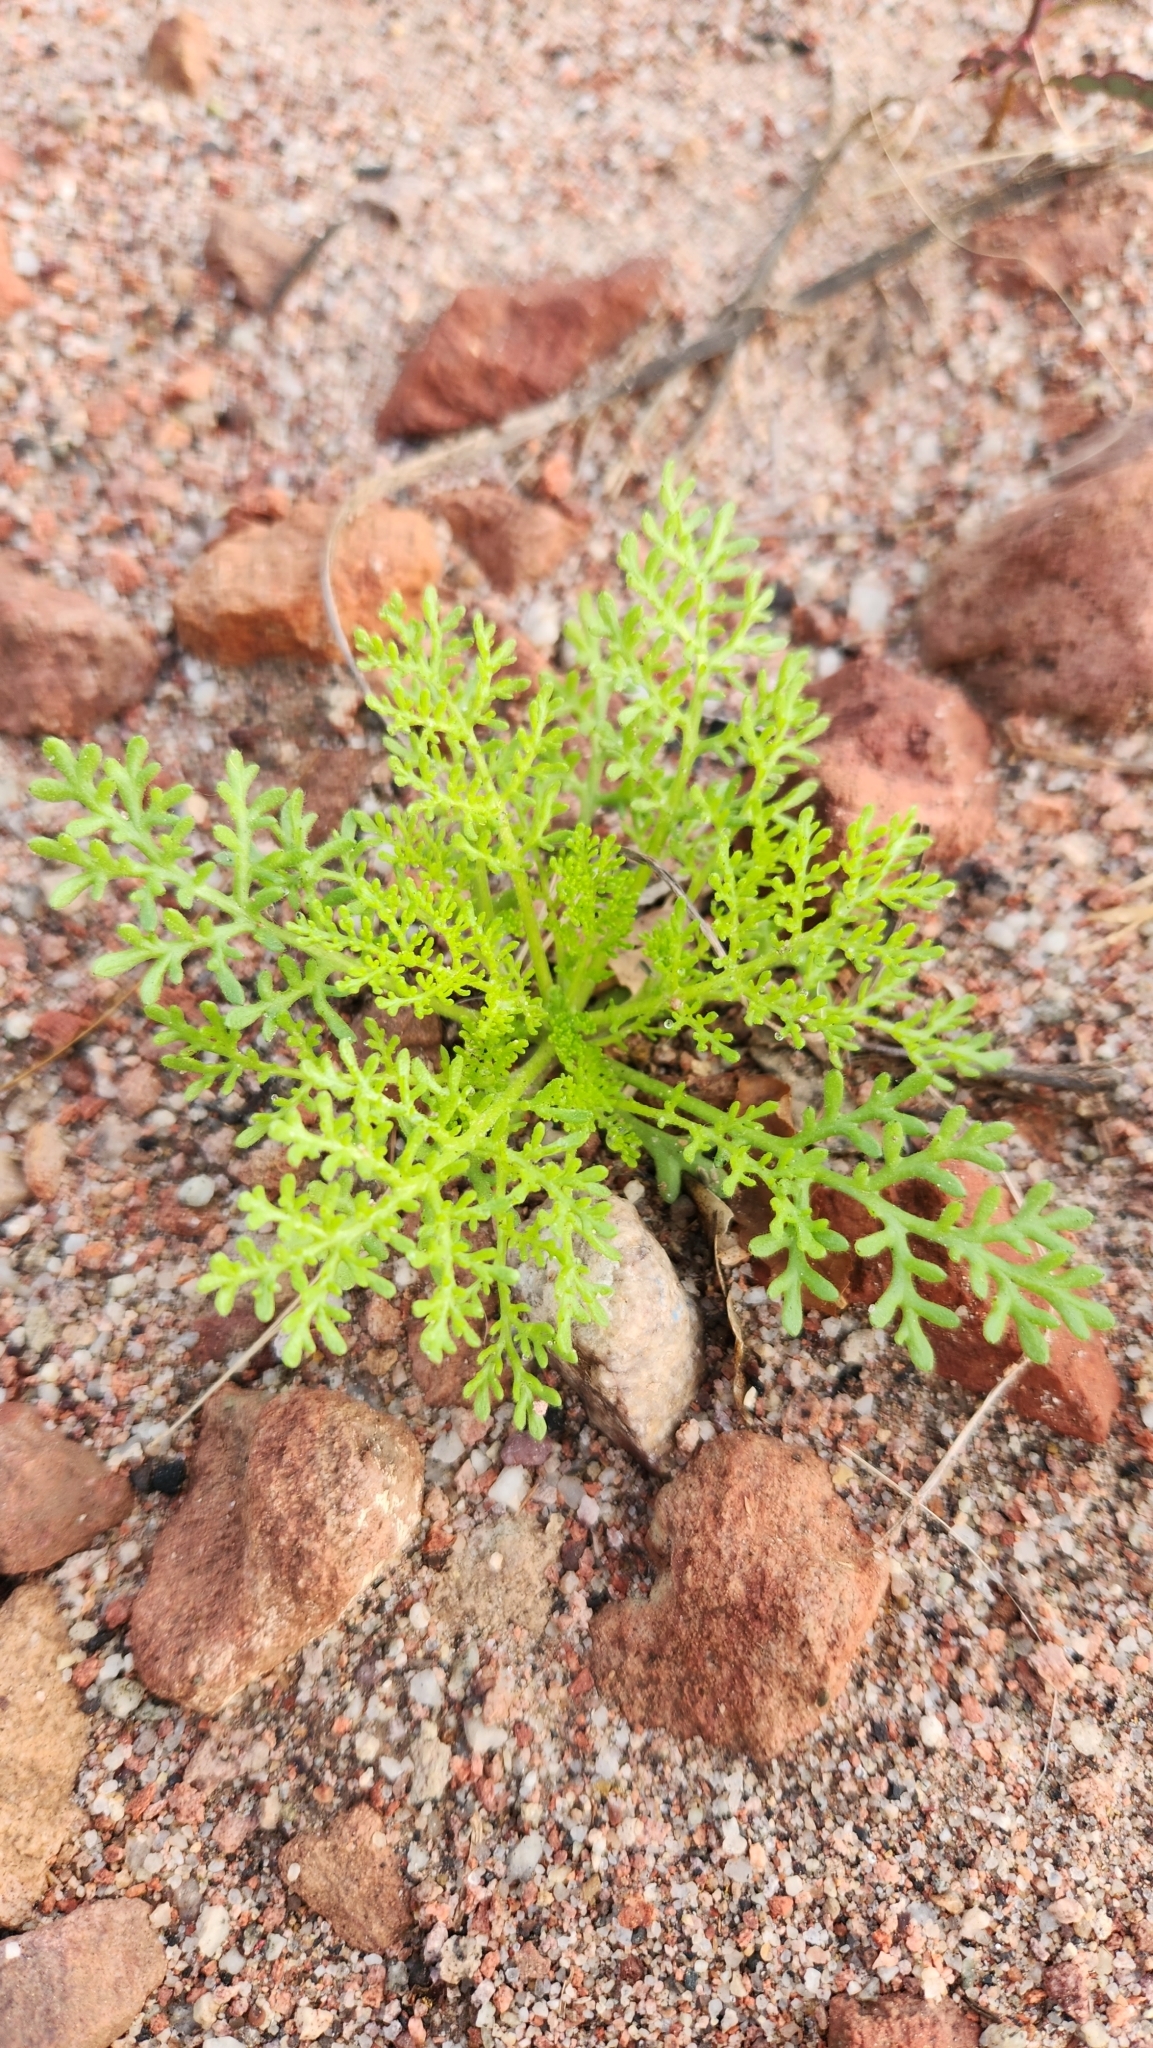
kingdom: Plantae
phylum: Tracheophyta
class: Magnoliopsida
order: Asterales
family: Asteraceae
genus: Oncosiphon
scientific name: Oncosiphon pilulifer
